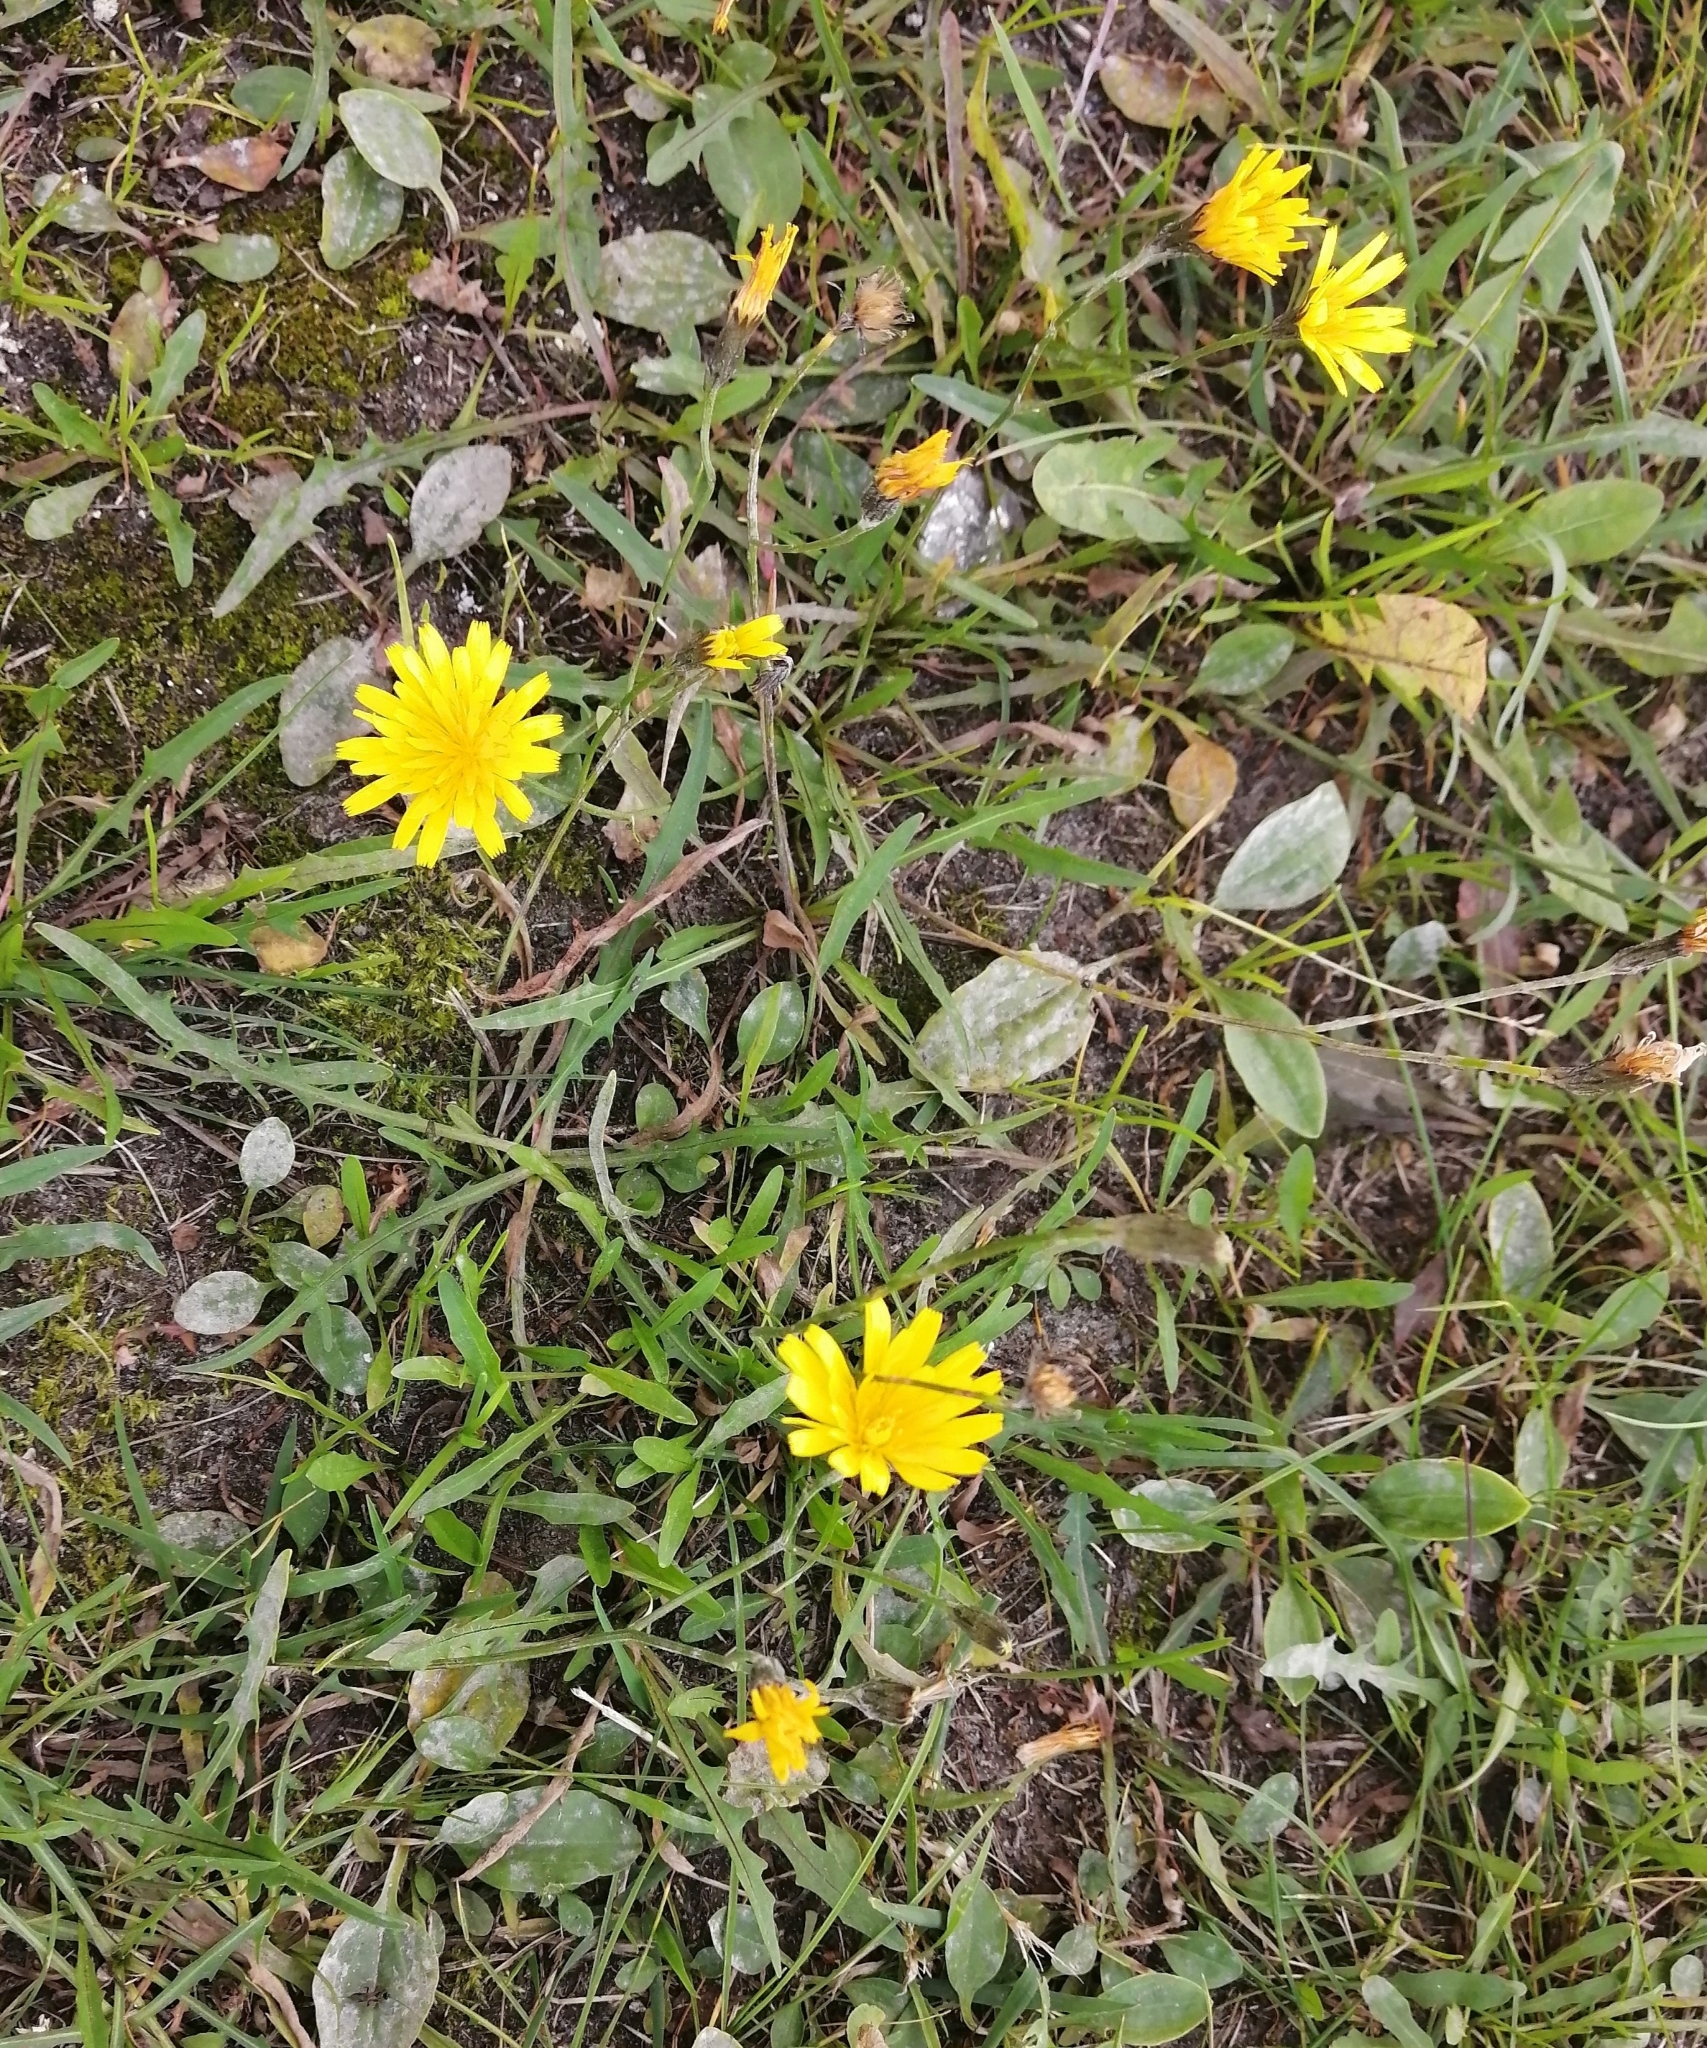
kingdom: Plantae
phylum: Tracheophyta
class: Magnoliopsida
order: Asterales
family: Asteraceae
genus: Scorzoneroides
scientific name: Scorzoneroides autumnalis
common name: Autumn hawkbit
